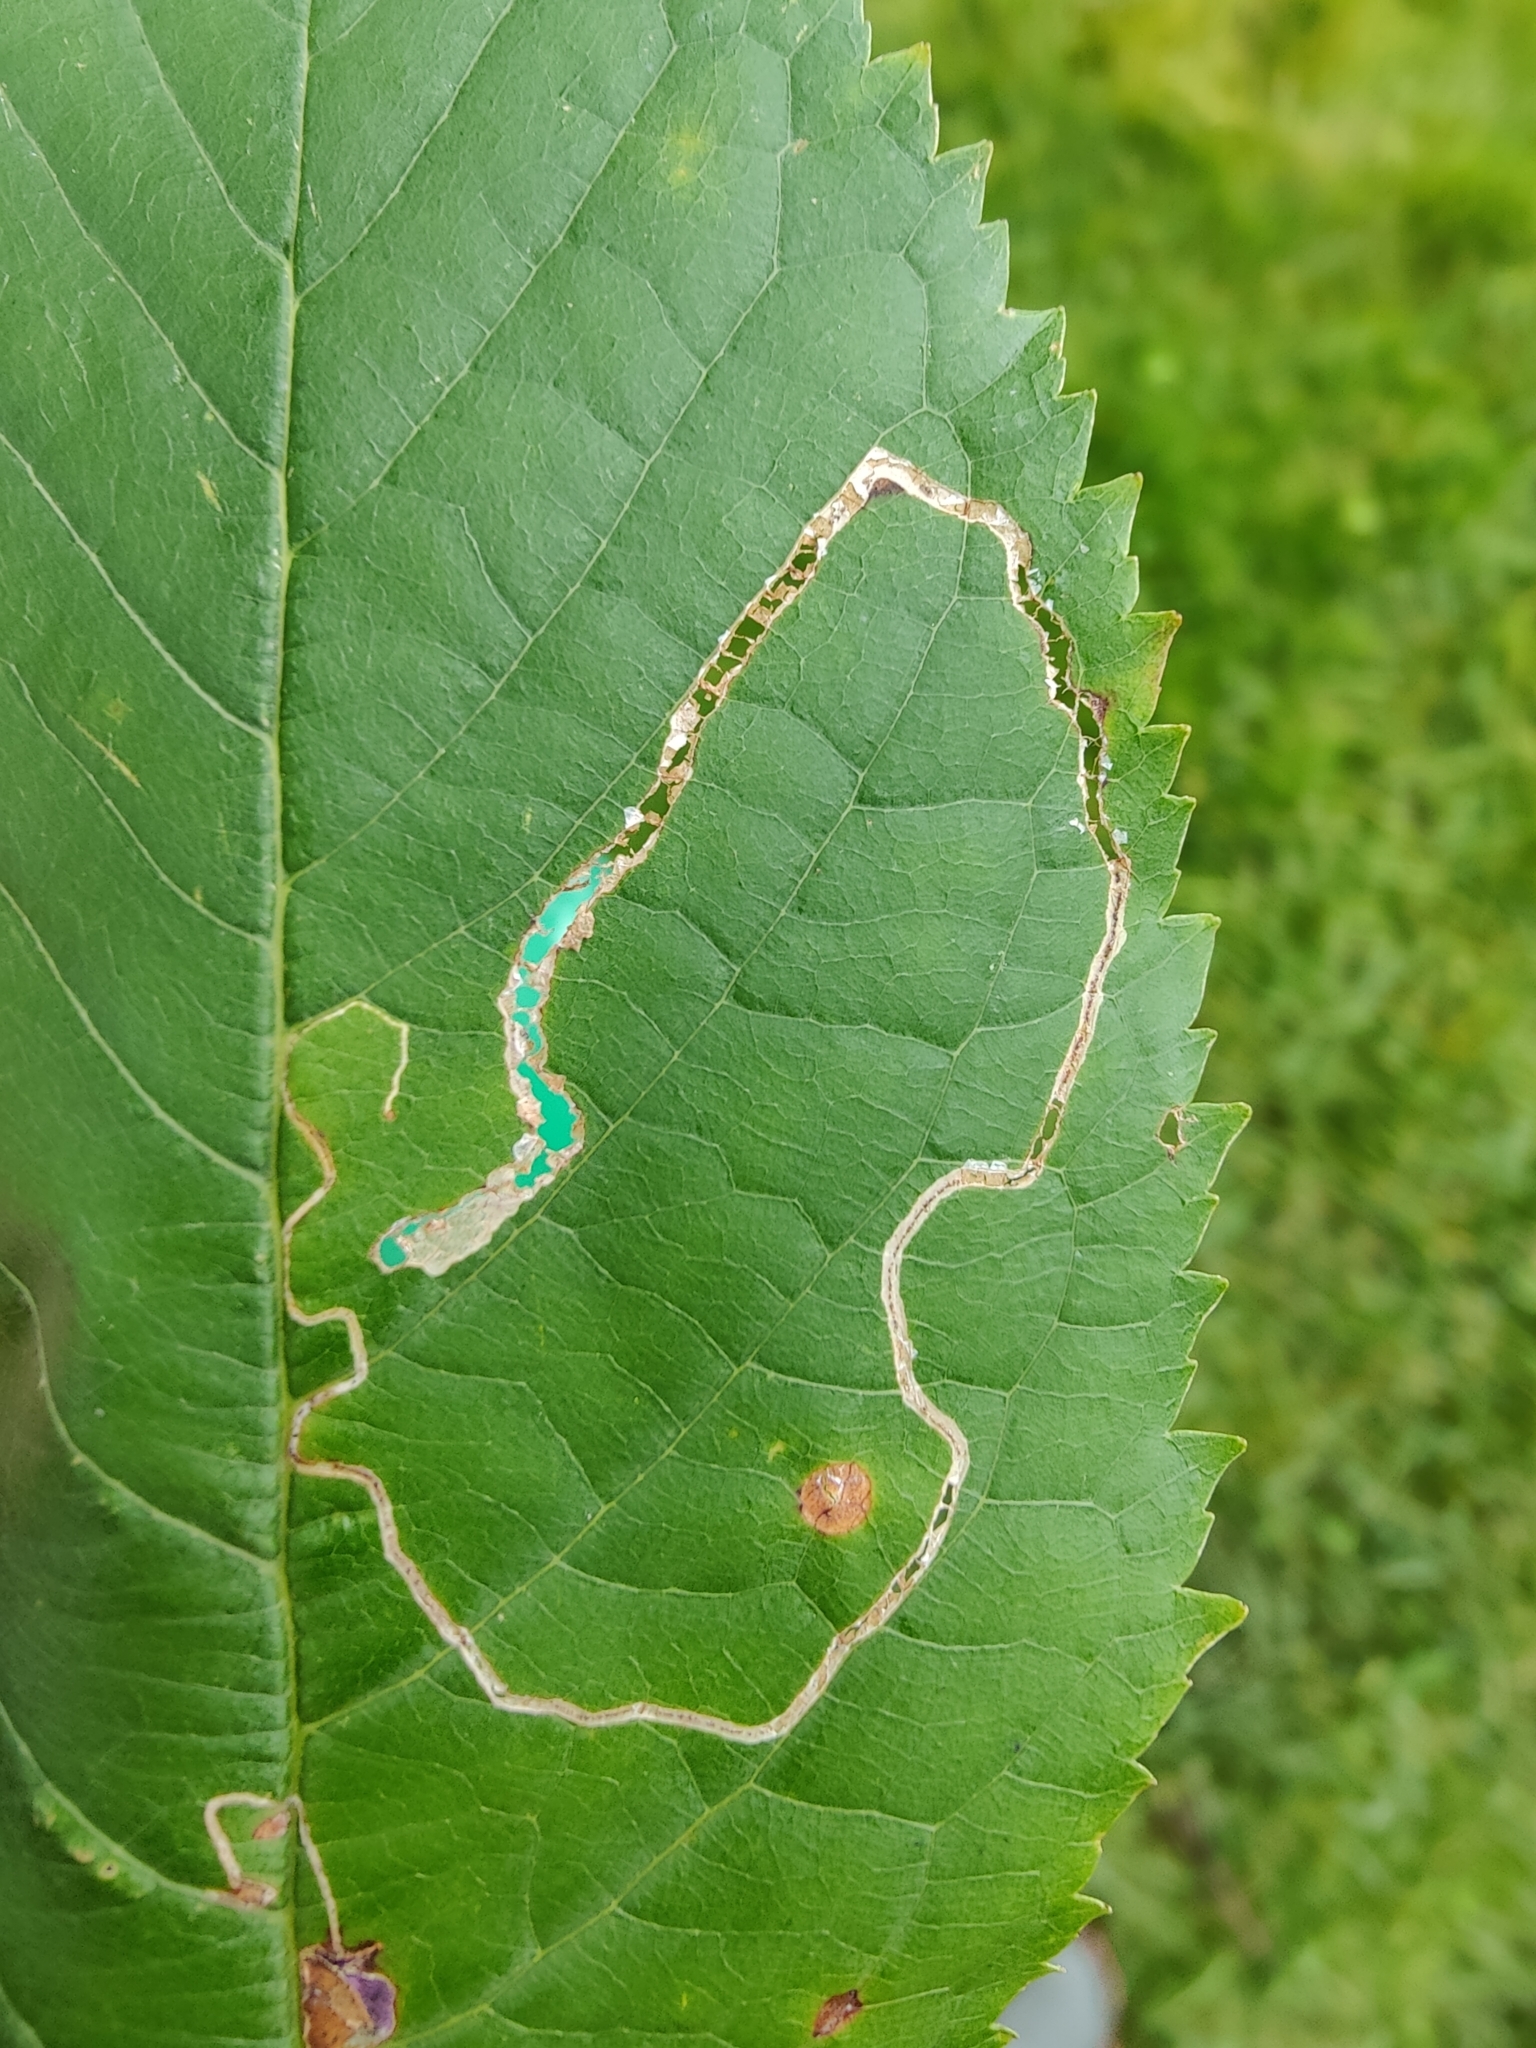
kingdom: Animalia
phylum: Arthropoda
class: Insecta
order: Lepidoptera
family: Lyonetiidae
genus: Lyonetia
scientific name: Lyonetia clerkella
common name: Apple leaf miner
